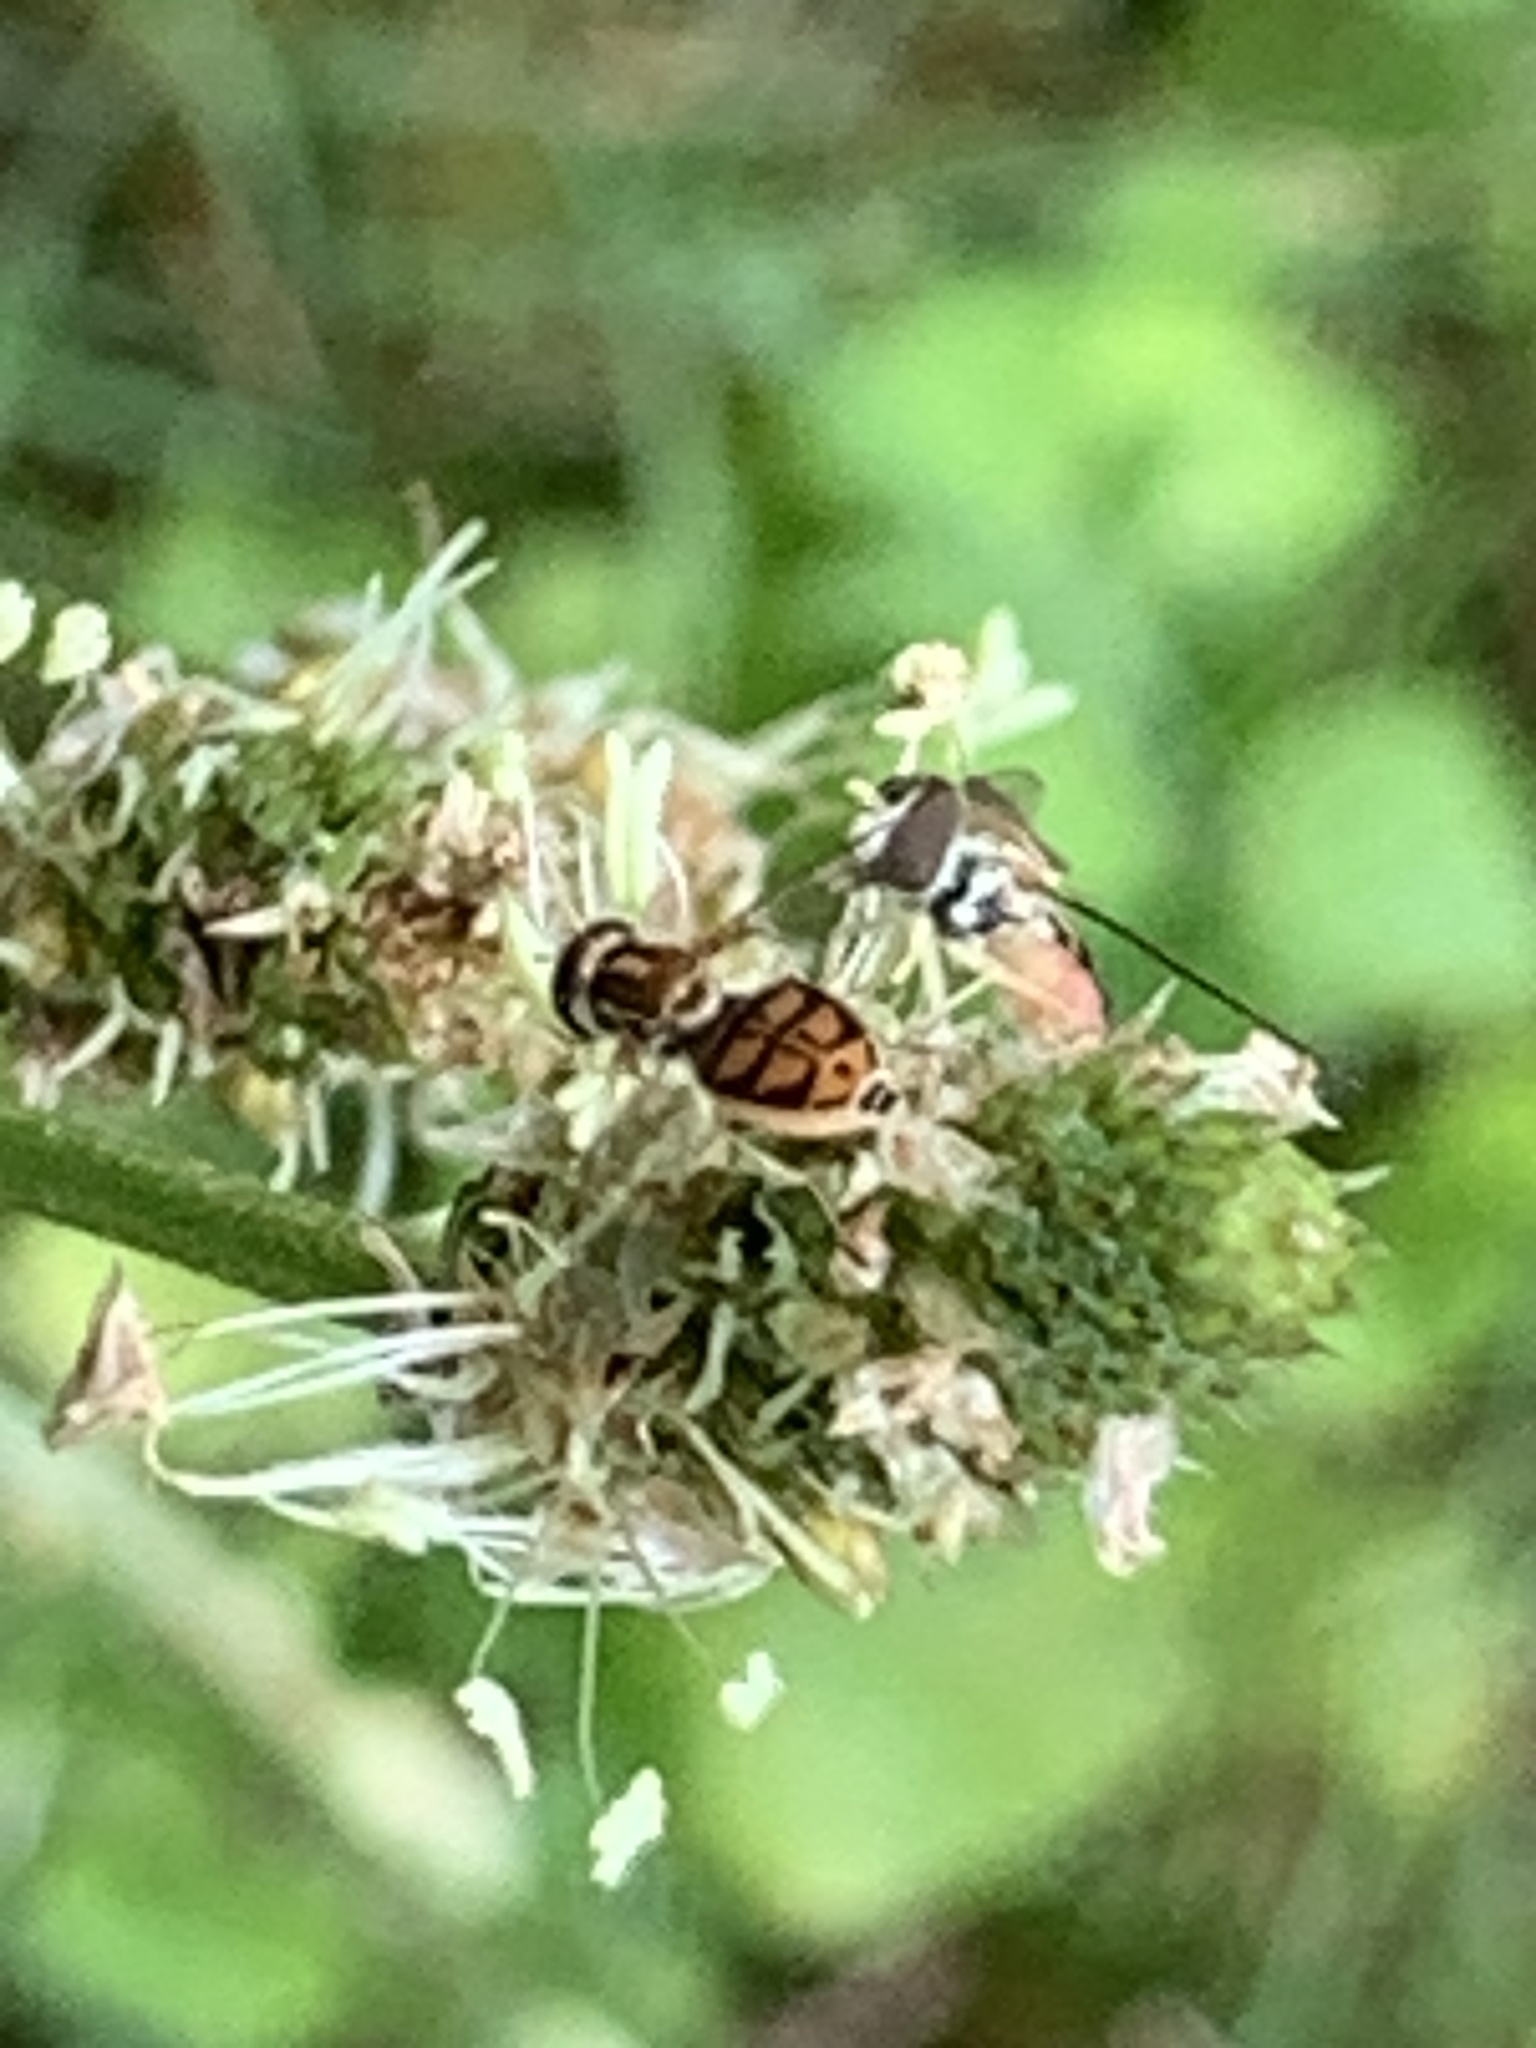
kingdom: Animalia
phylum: Arthropoda
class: Insecta
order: Diptera
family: Syrphidae
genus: Toxomerus
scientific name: Toxomerus marginatus
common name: Syrphid fly
